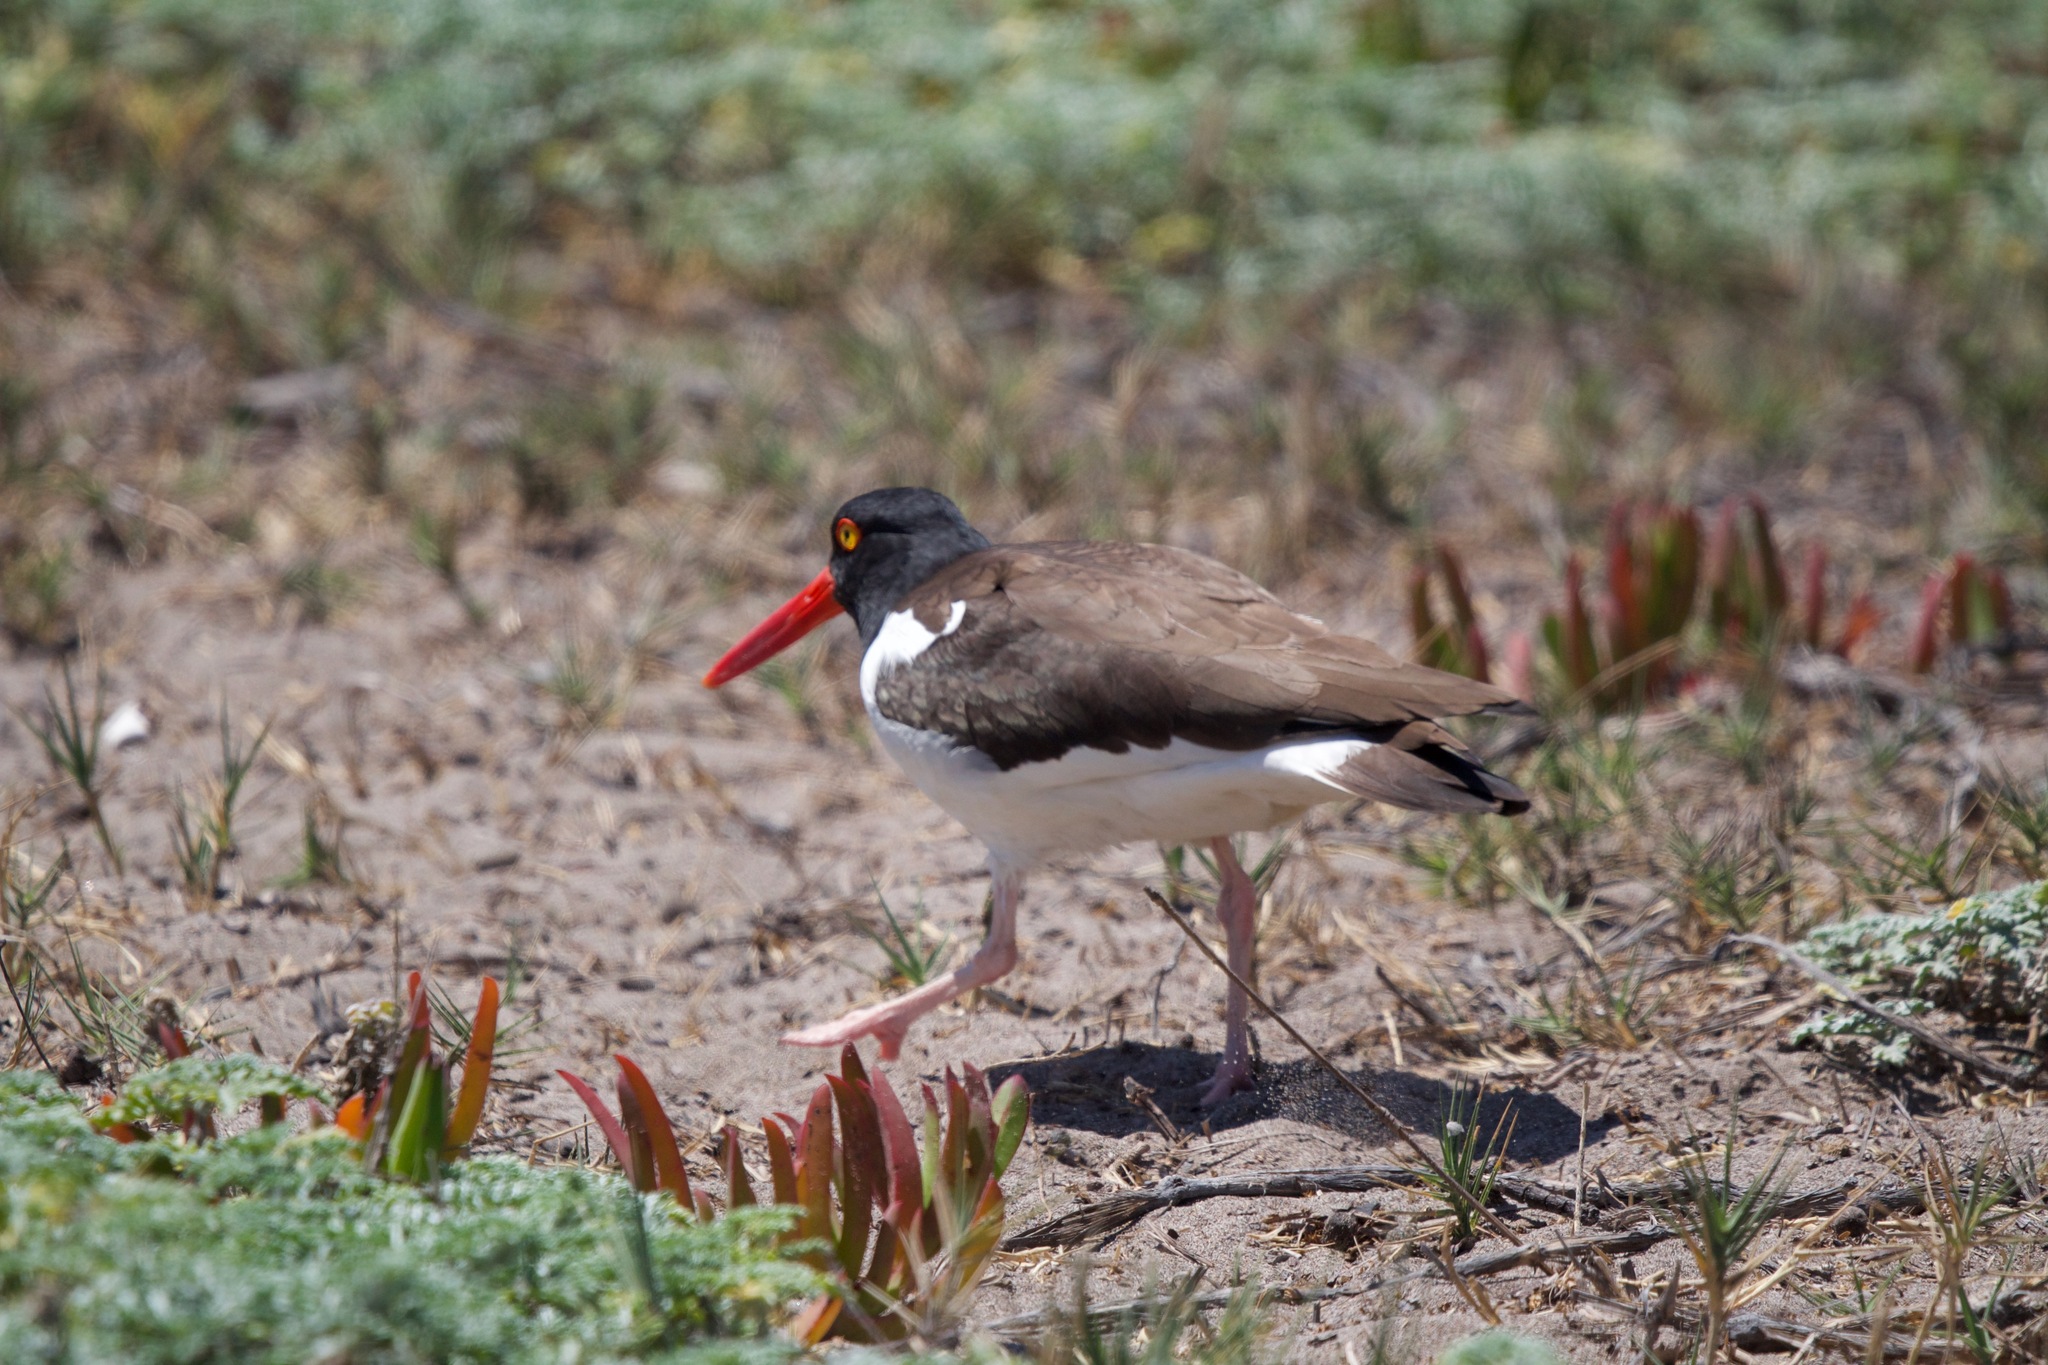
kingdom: Animalia
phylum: Chordata
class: Aves
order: Charadriiformes
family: Haematopodidae
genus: Haematopus
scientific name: Haematopus palliatus
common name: American oystercatcher
